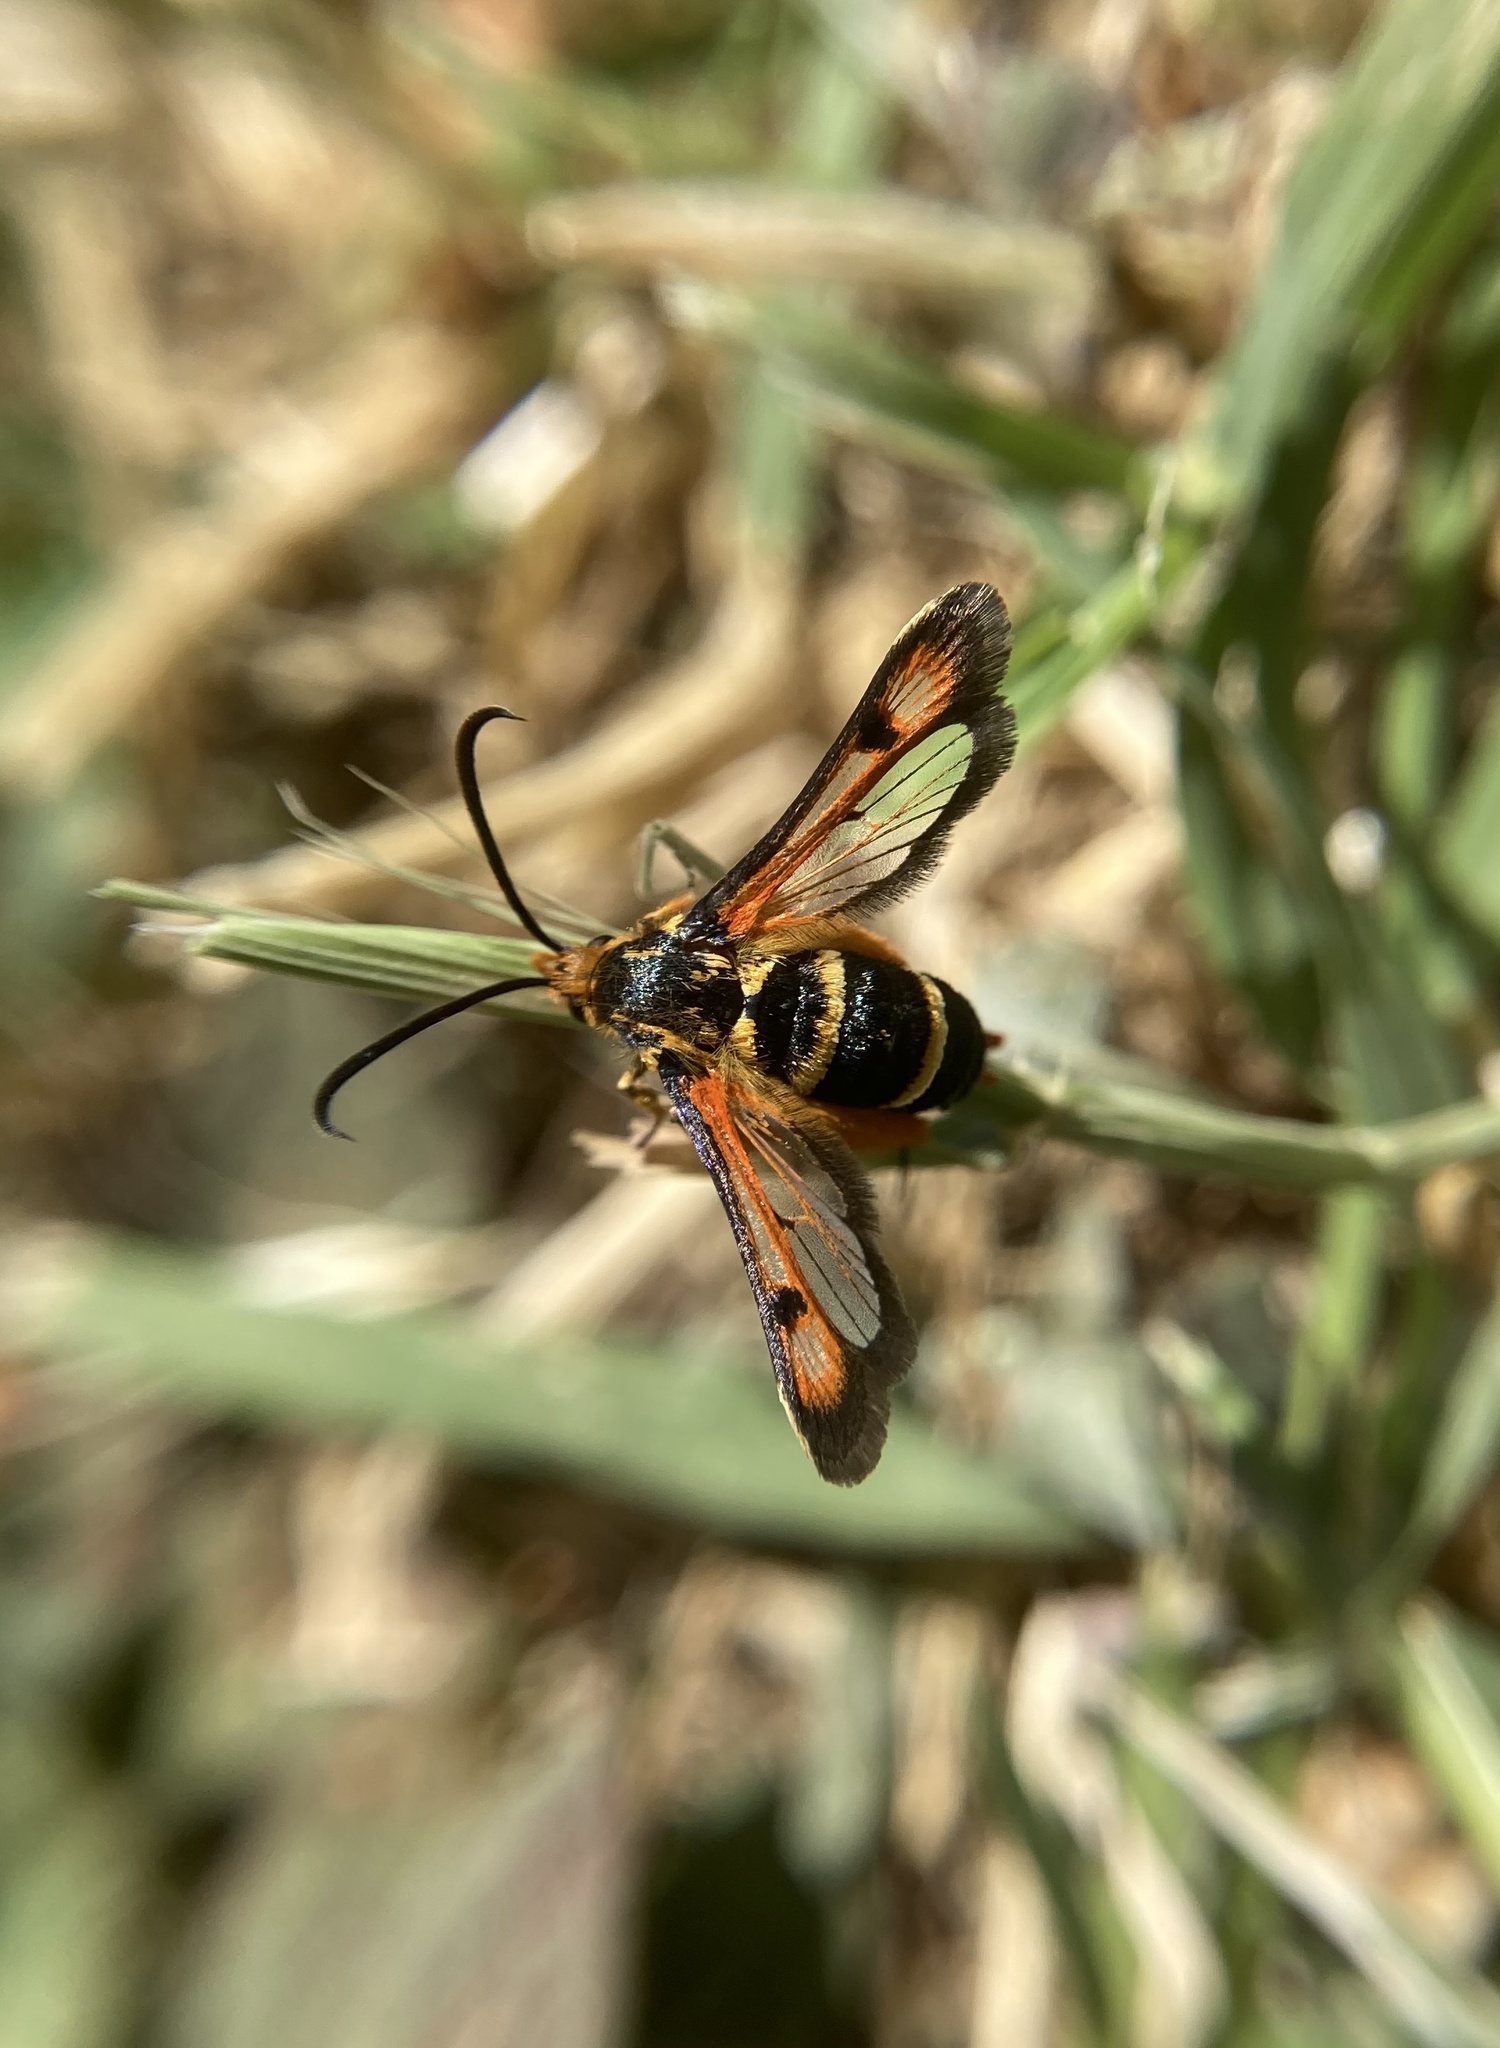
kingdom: Animalia
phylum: Arthropoda
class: Insecta
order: Lepidoptera
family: Sesiidae
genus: Pyropteron
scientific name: Pyropteron minianiformis
